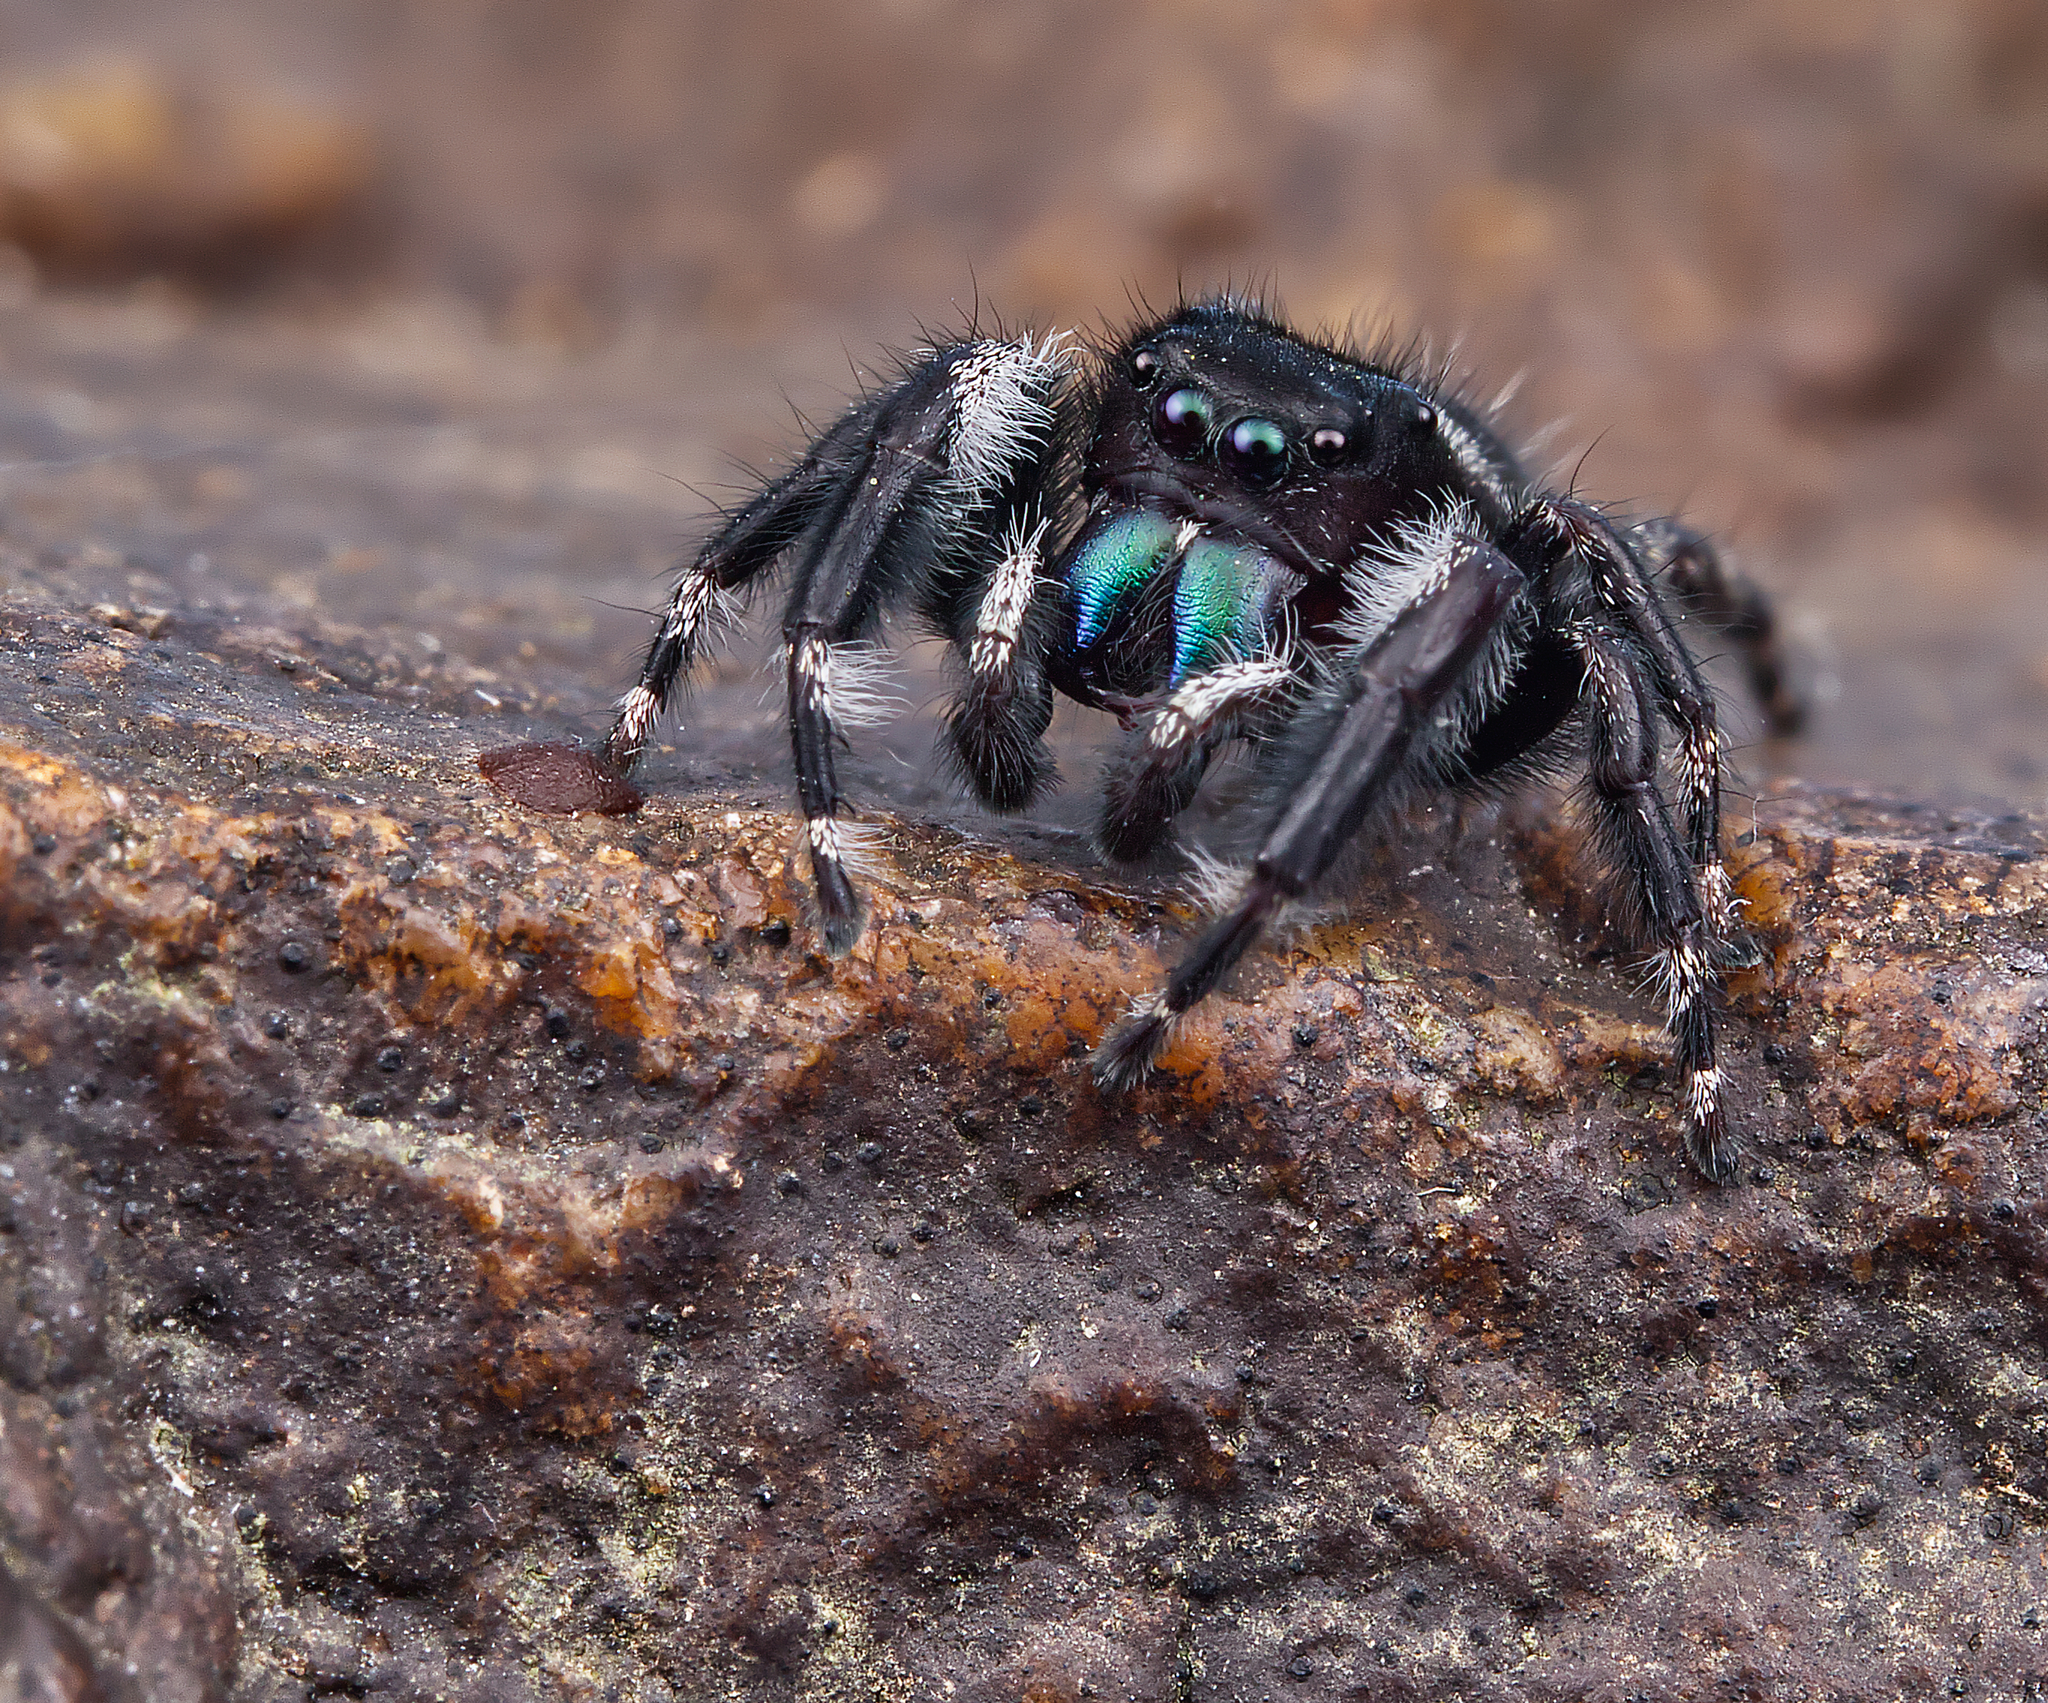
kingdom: Animalia
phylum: Arthropoda
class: Arachnida
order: Araneae
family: Salticidae
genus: Phidippus
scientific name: Phidippus audax
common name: Bold jumper
